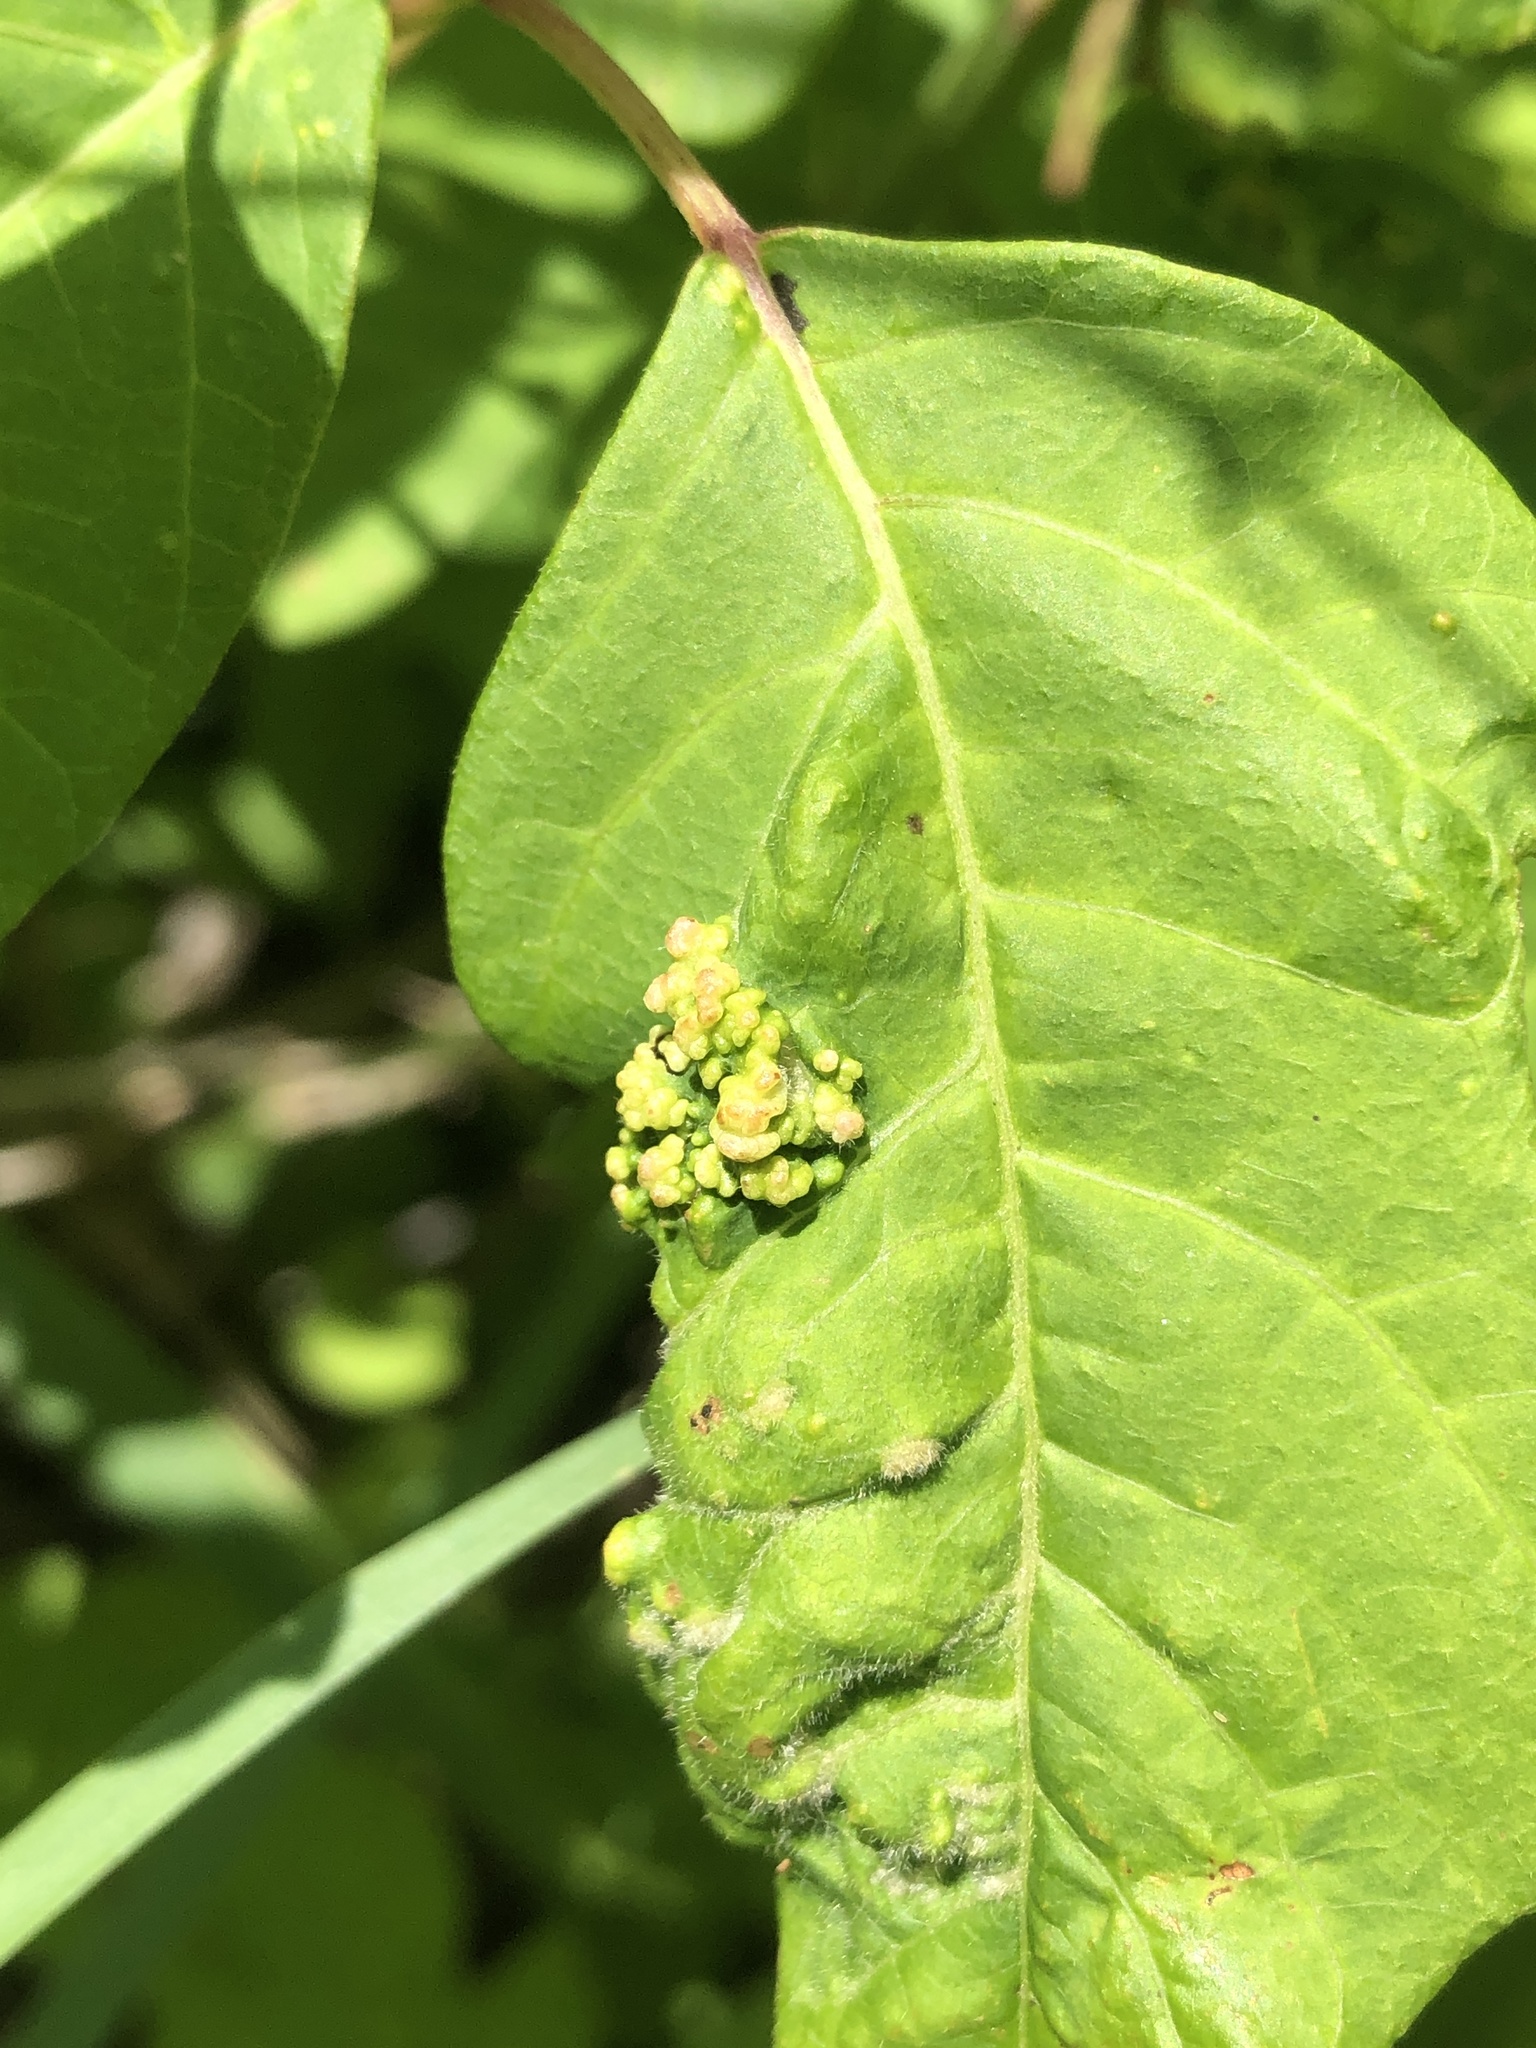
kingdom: Animalia
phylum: Arthropoda
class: Arachnida
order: Trombidiformes
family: Eriophyidae
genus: Aculops
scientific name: Aculops
